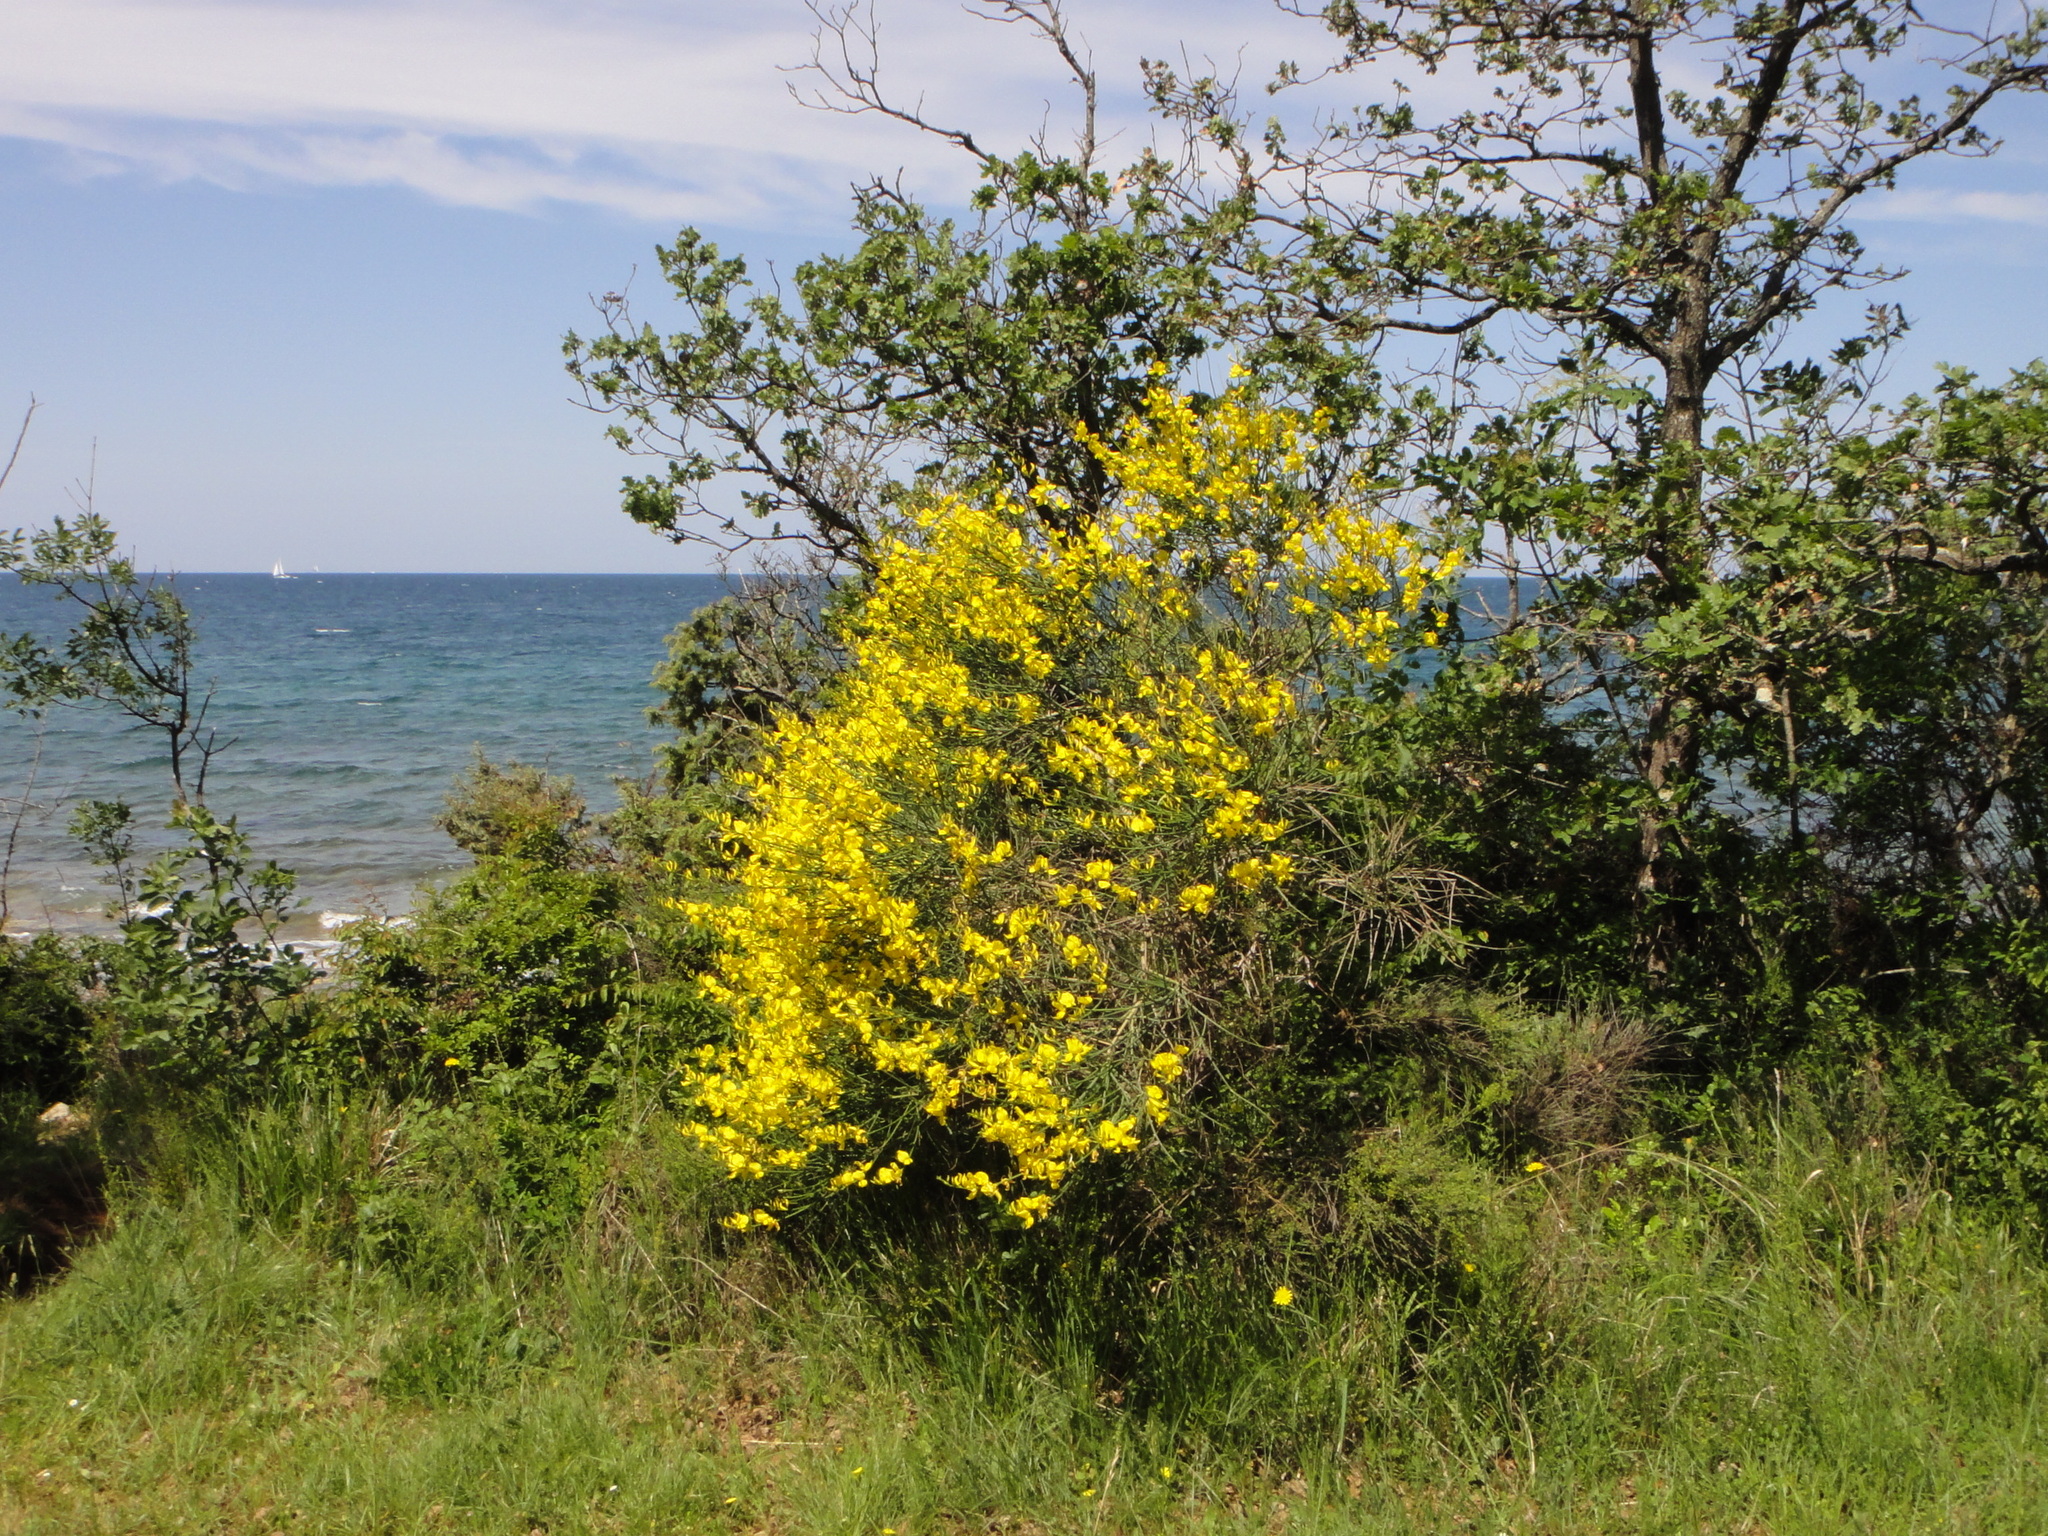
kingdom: Plantae
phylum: Tracheophyta
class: Magnoliopsida
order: Fabales
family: Fabaceae
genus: Spartium
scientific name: Spartium junceum
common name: Spanish broom
